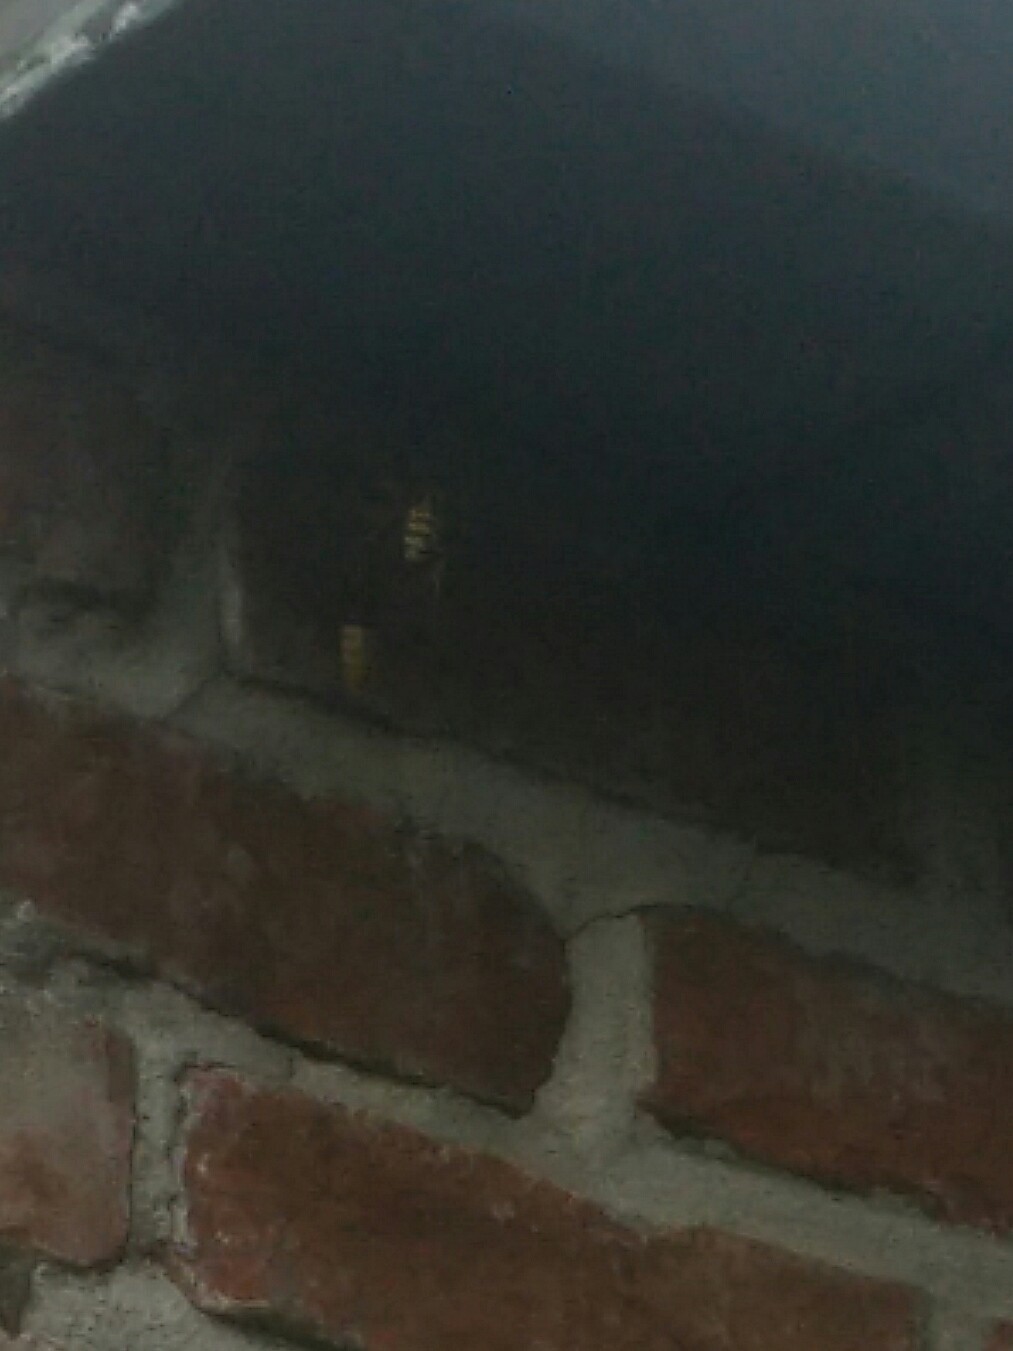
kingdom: Animalia
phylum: Arthropoda
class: Insecta
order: Hymenoptera
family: Vespidae
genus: Vespa
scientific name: Vespa crabro
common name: Hornet
